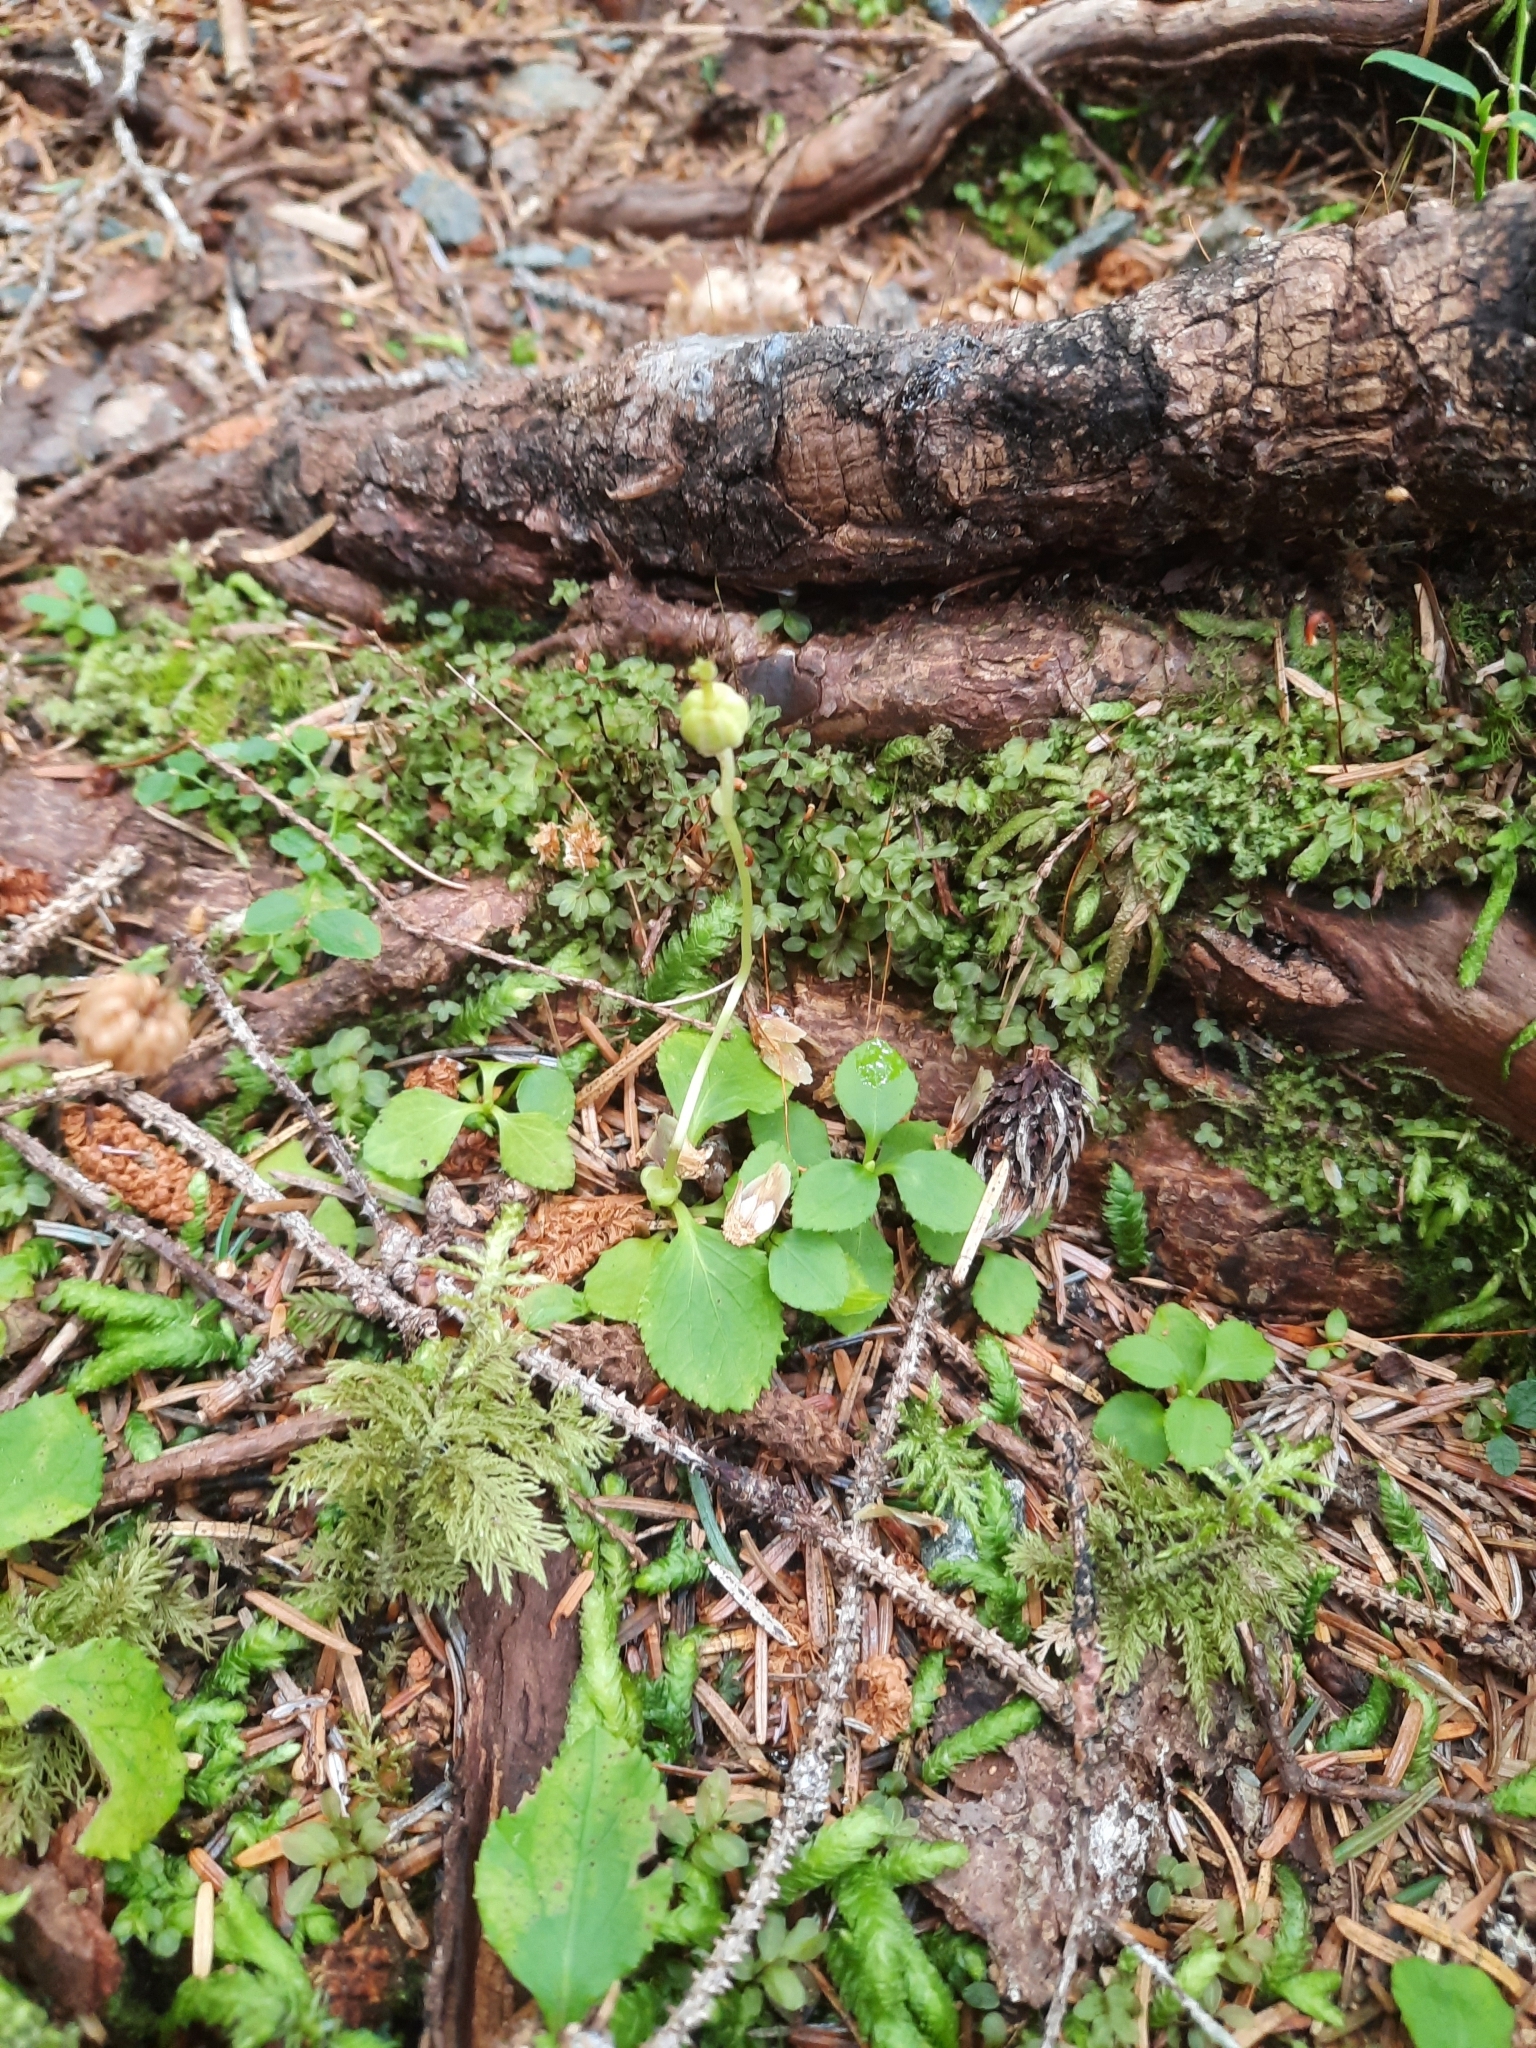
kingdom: Plantae
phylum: Tracheophyta
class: Magnoliopsida
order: Ericales
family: Ericaceae
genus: Moneses
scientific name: Moneses uniflora
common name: One-flowered wintergreen
